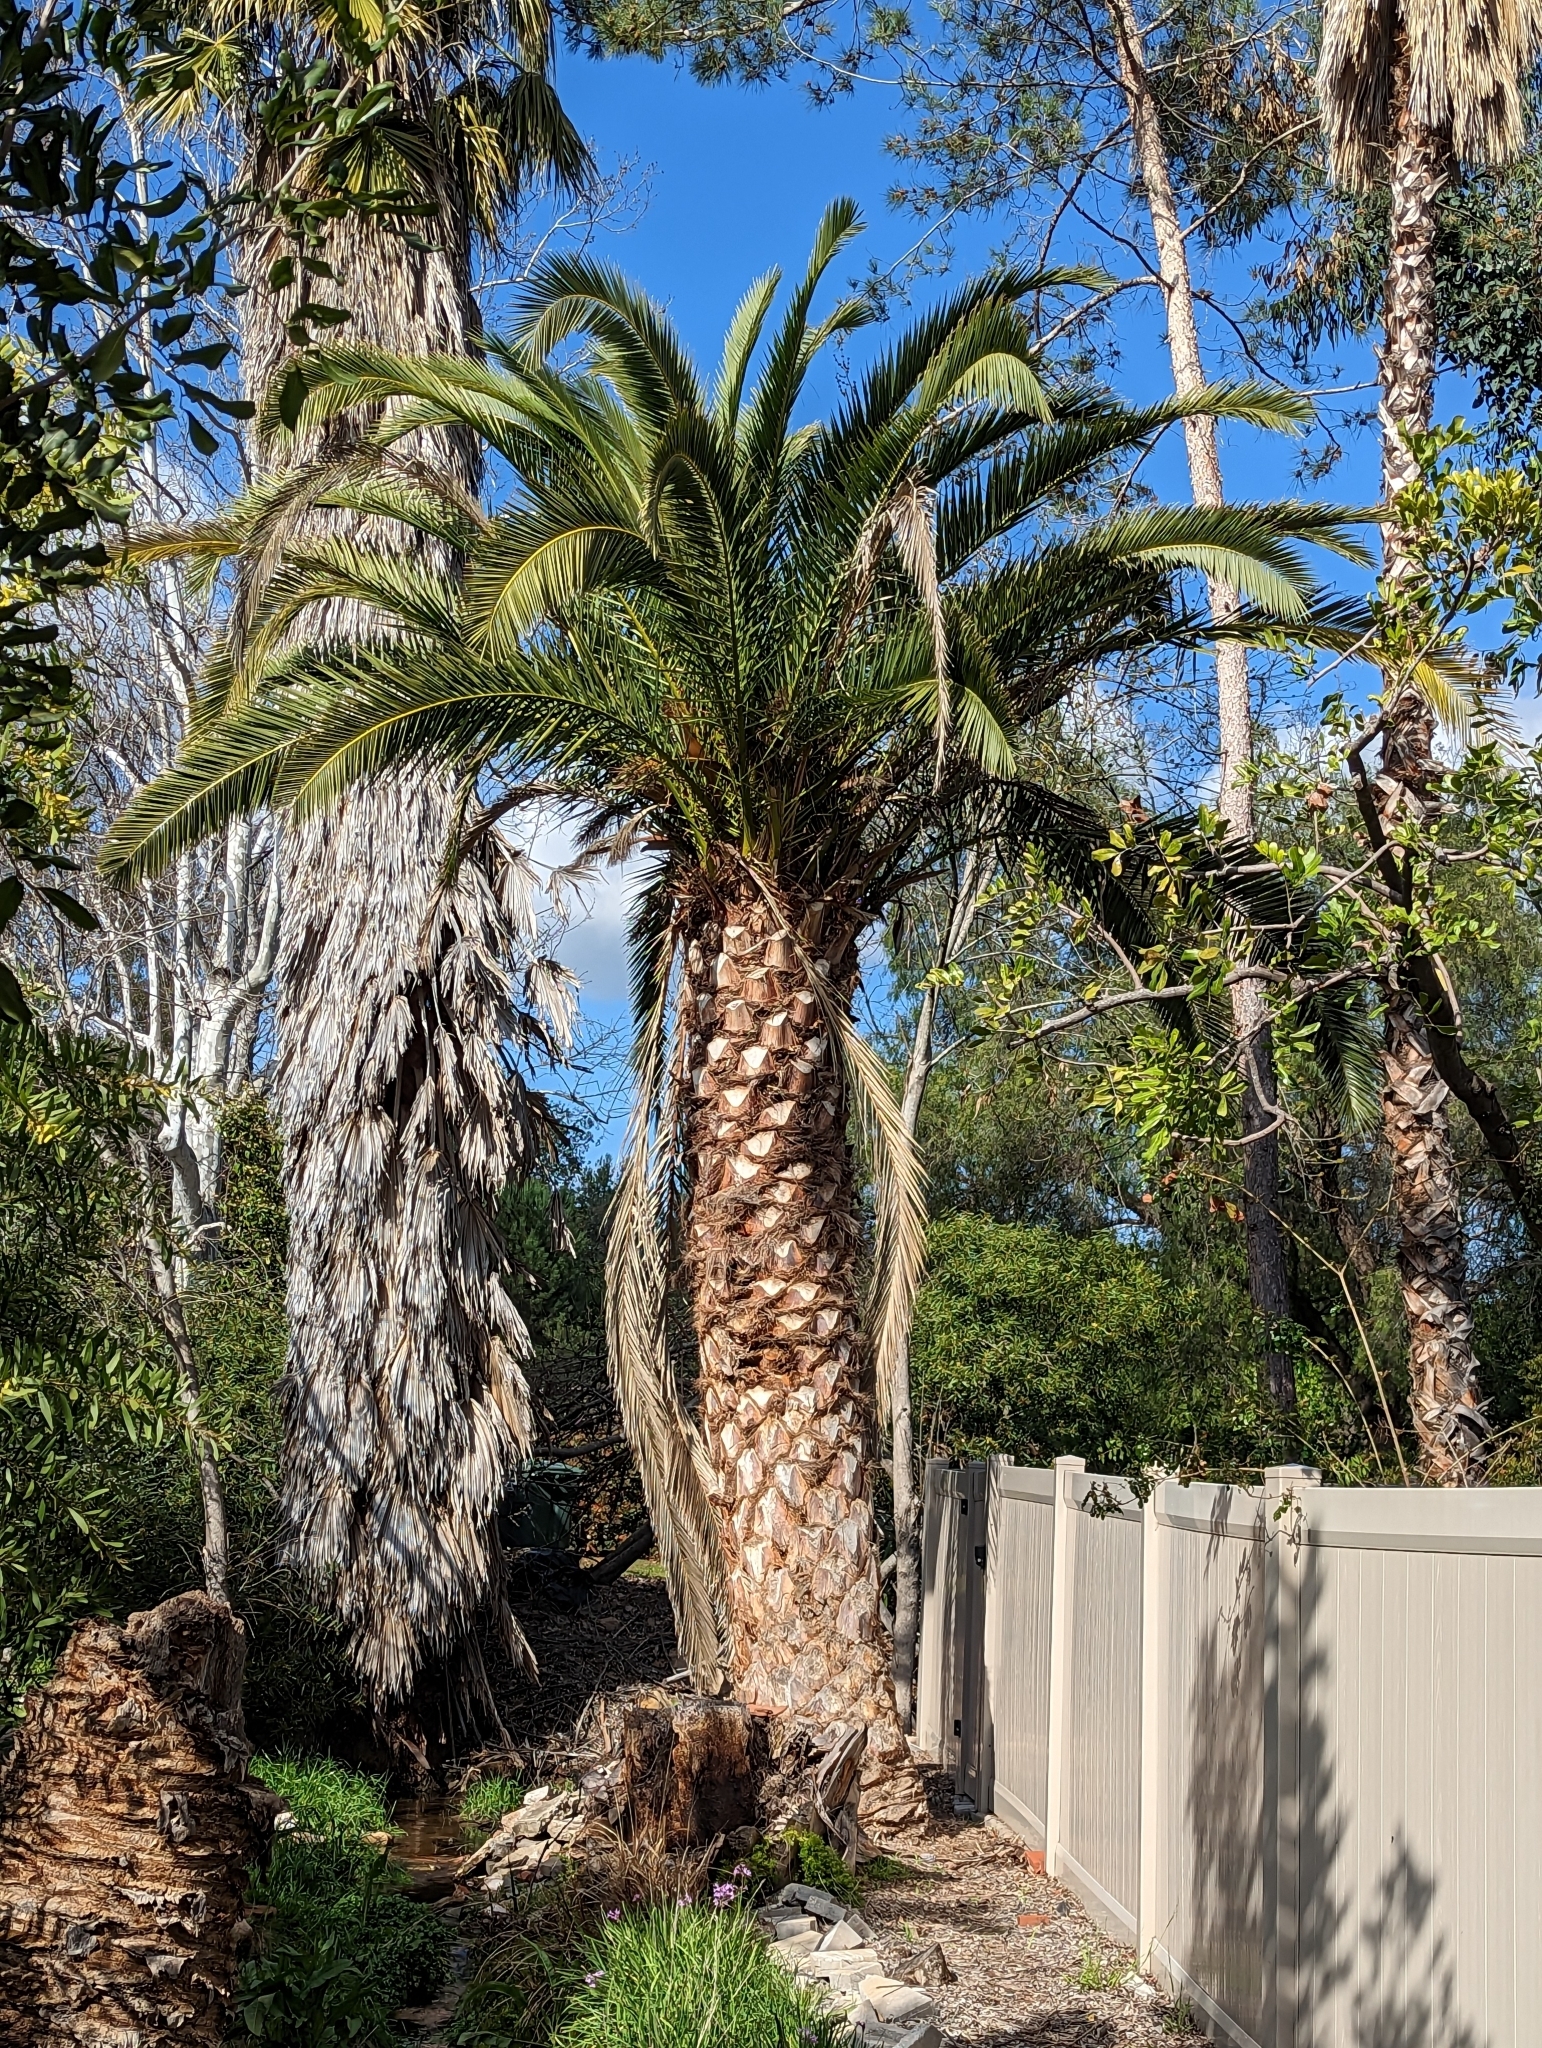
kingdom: Plantae
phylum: Tracheophyta
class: Liliopsida
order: Arecales
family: Arecaceae
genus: Phoenix
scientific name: Phoenix canariensis
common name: Canary island date palm
